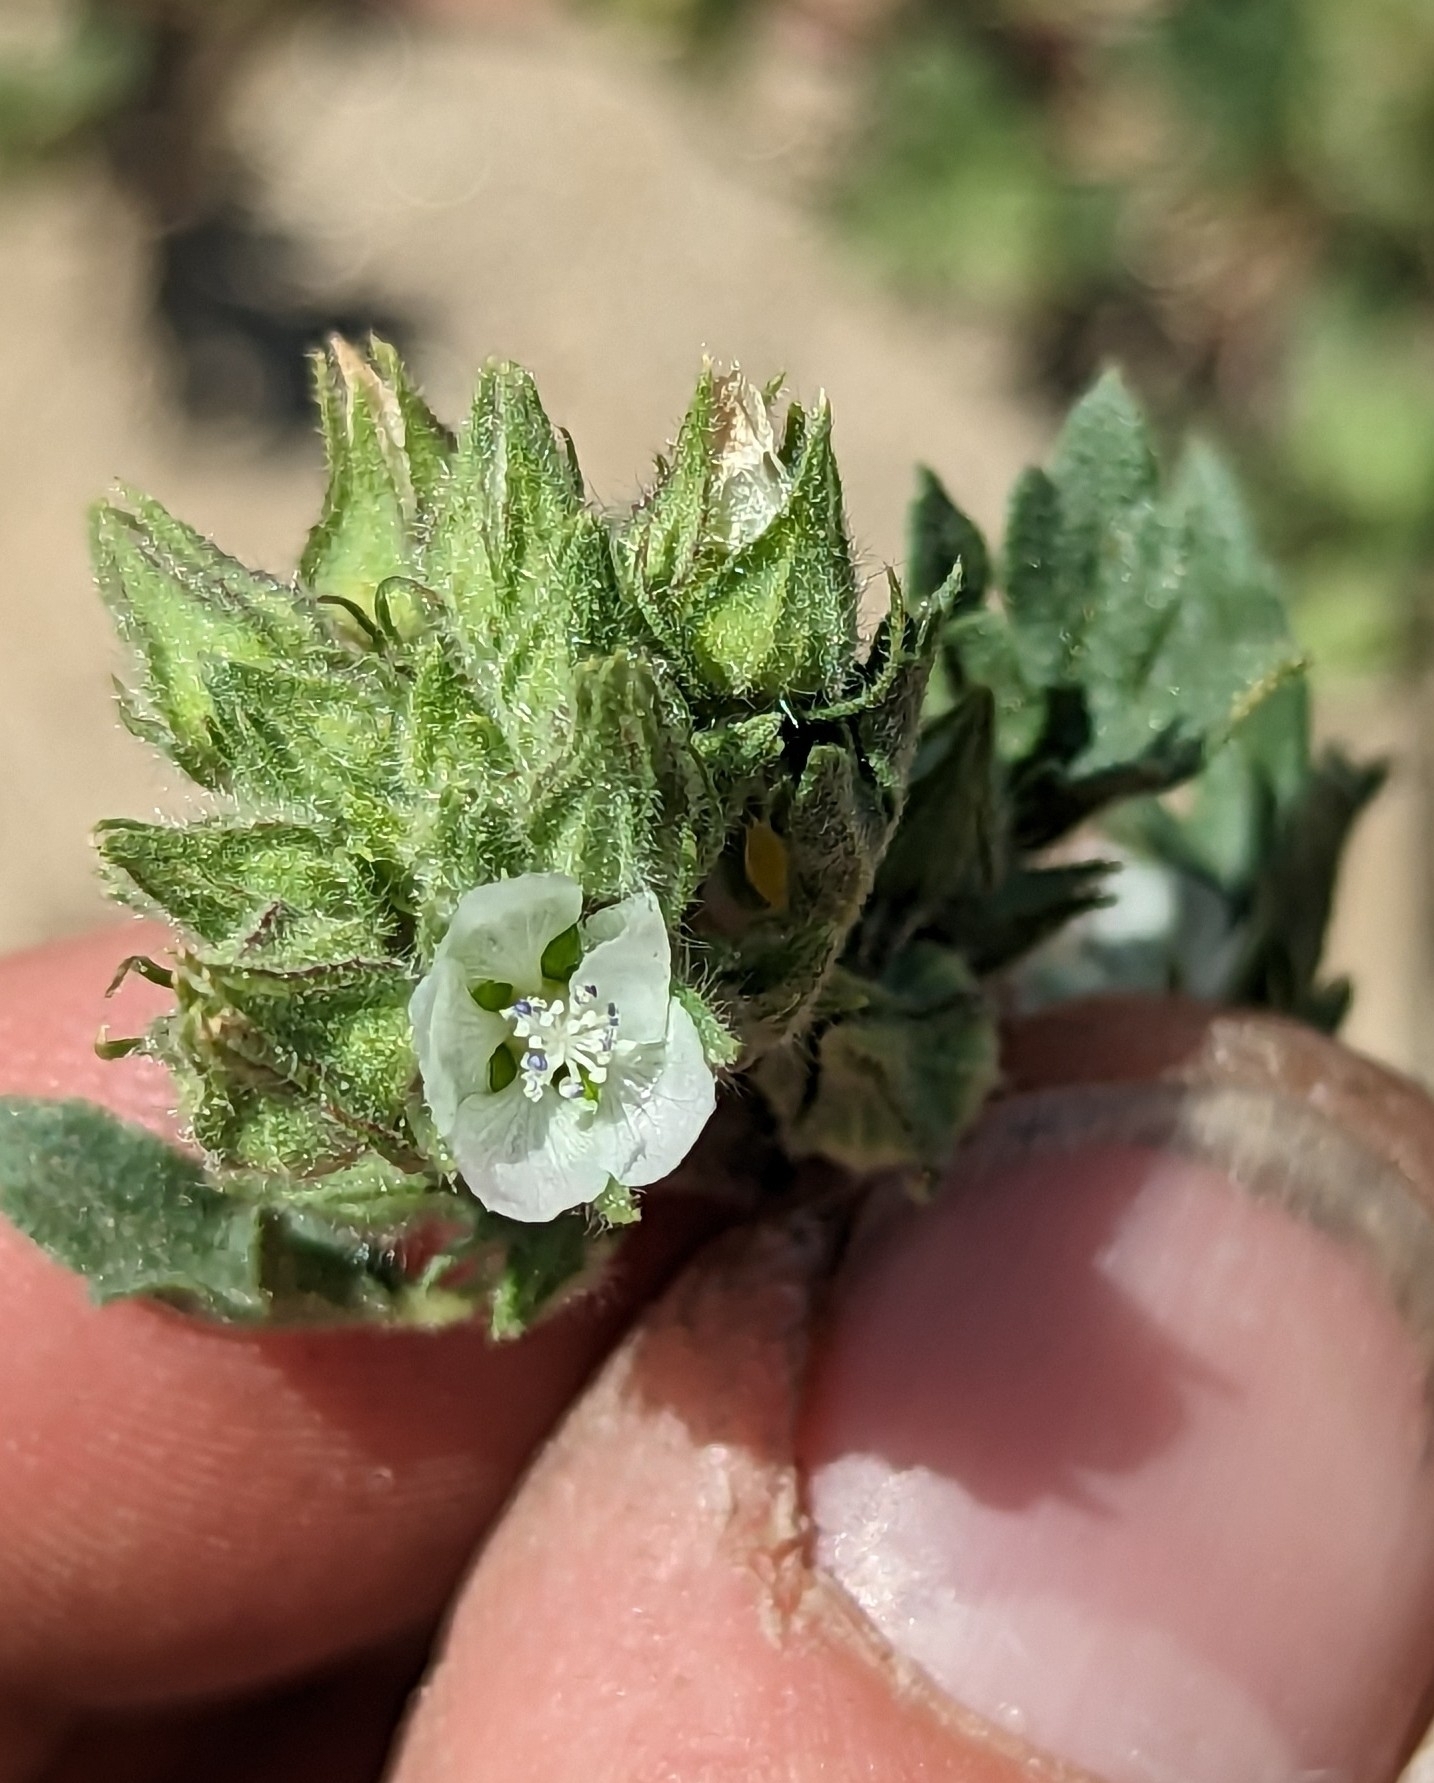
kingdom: Plantae
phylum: Tracheophyta
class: Magnoliopsida
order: Malvales
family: Malvaceae
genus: Eremalche
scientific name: Eremalche exilis
